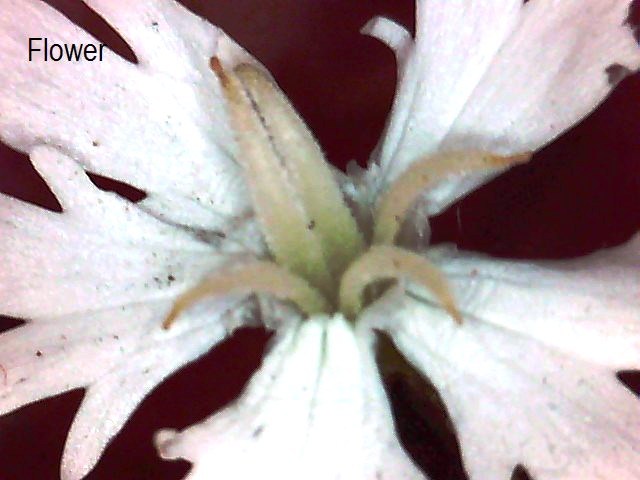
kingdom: Plantae
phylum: Tracheophyta
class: Magnoliopsida
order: Caryophyllales
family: Caryophyllaceae
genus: Silene
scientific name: Silene gallica
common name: Small-flowered catchfly
